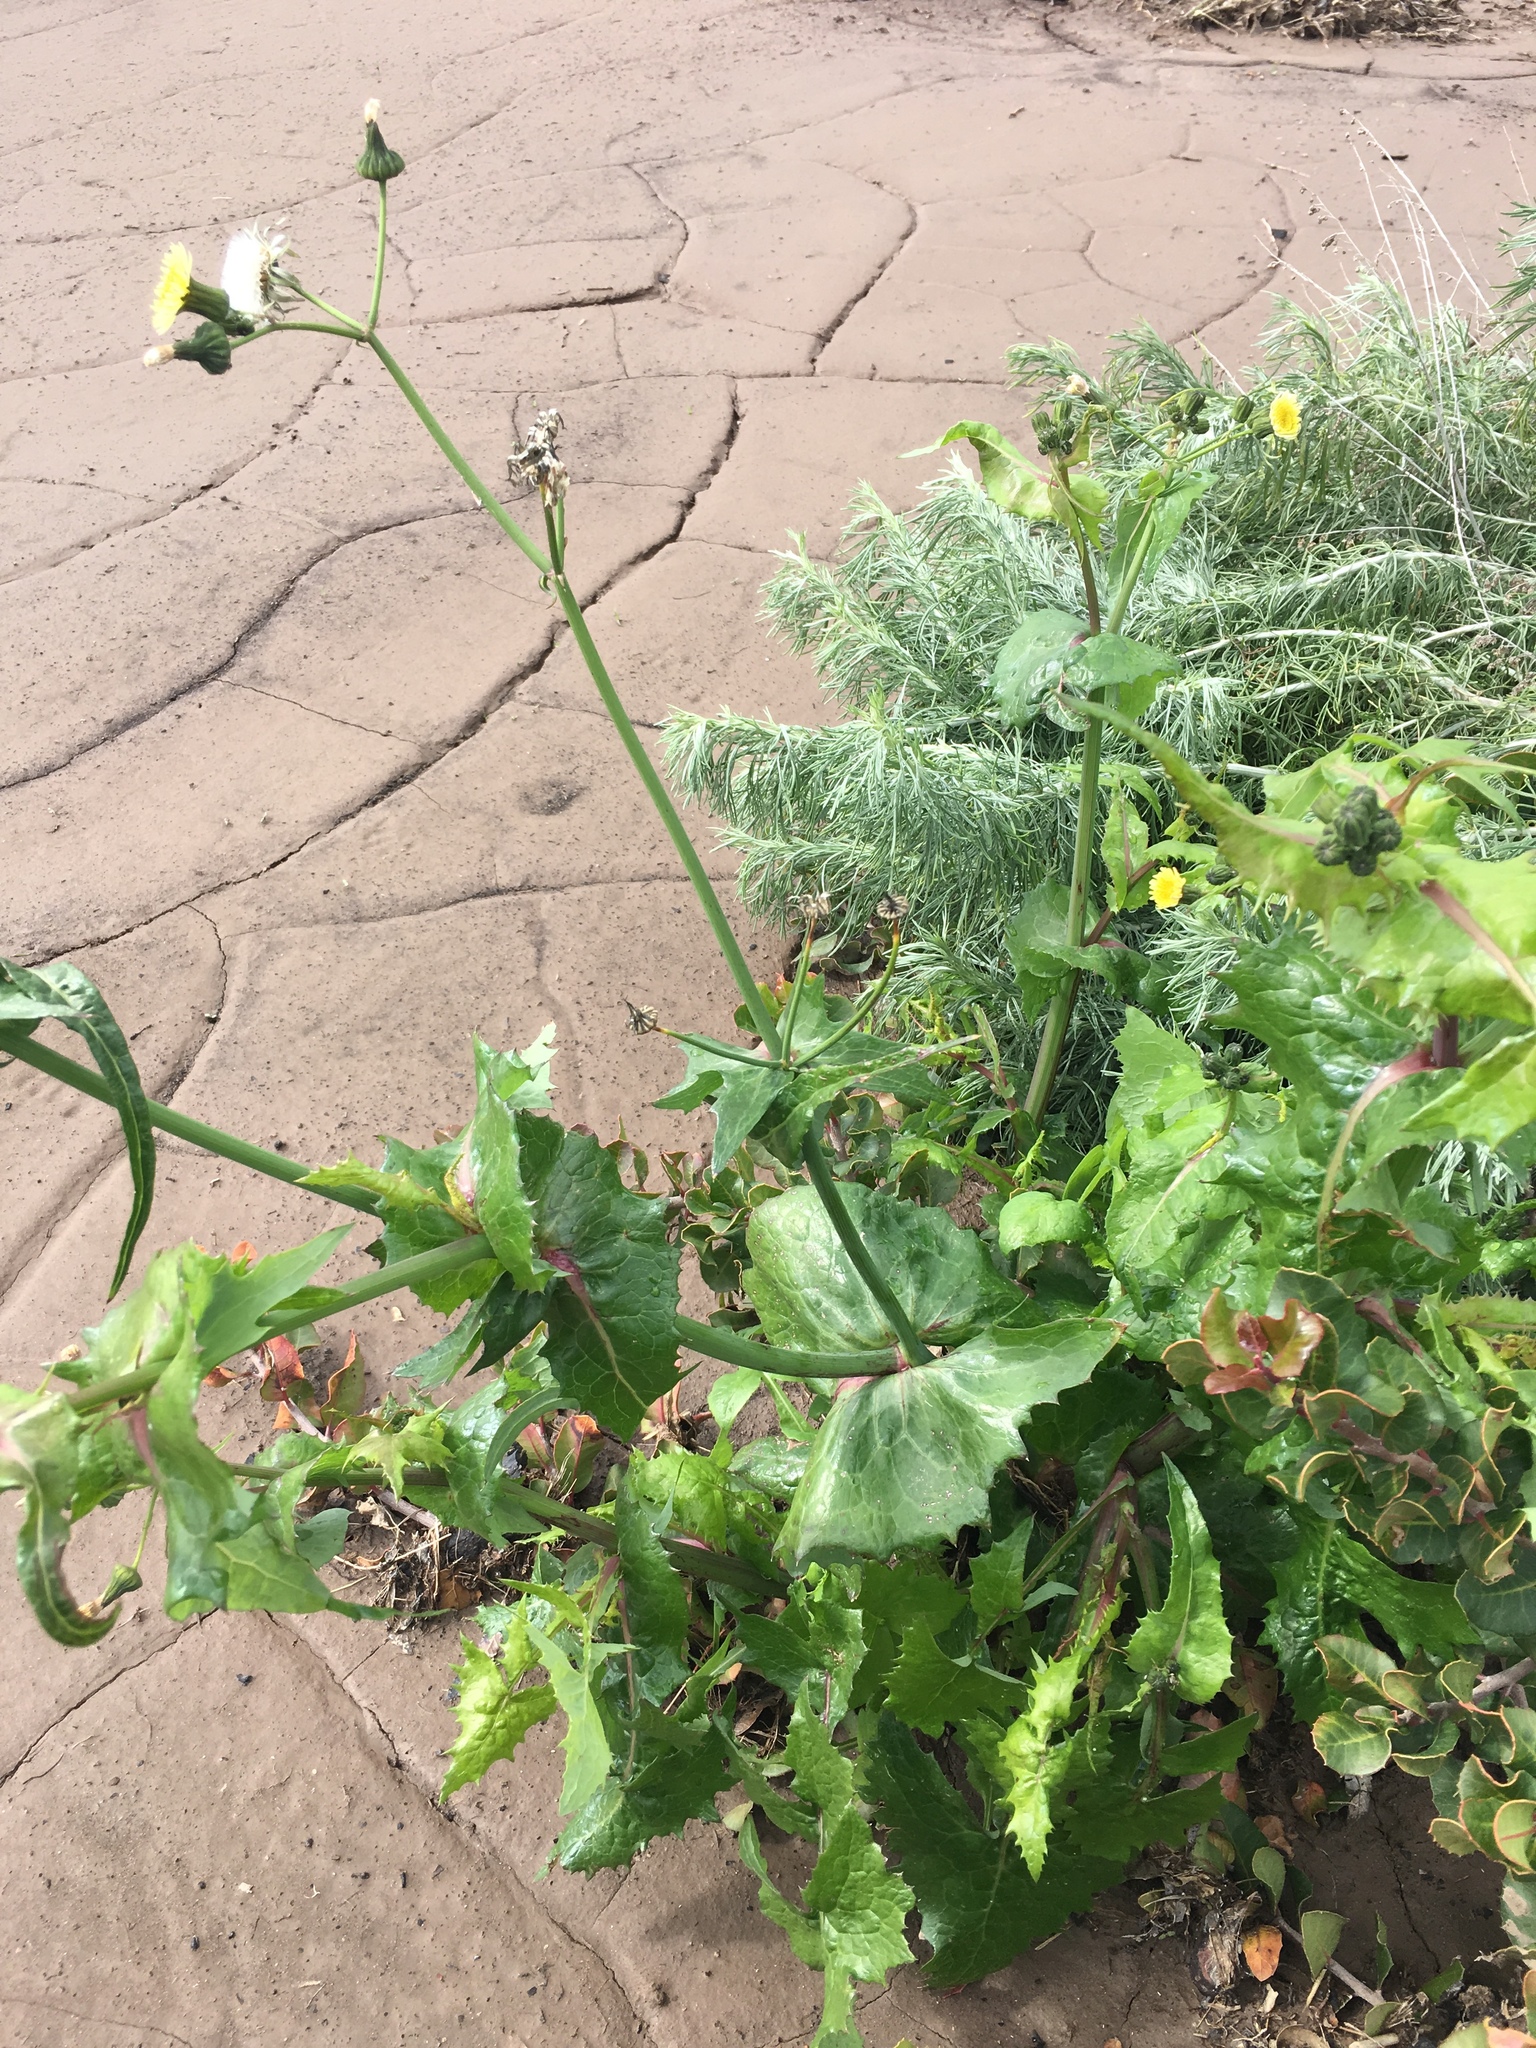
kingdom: Plantae
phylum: Tracheophyta
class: Magnoliopsida
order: Asterales
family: Asteraceae
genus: Sonchus
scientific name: Sonchus oleraceus
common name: Common sowthistle
